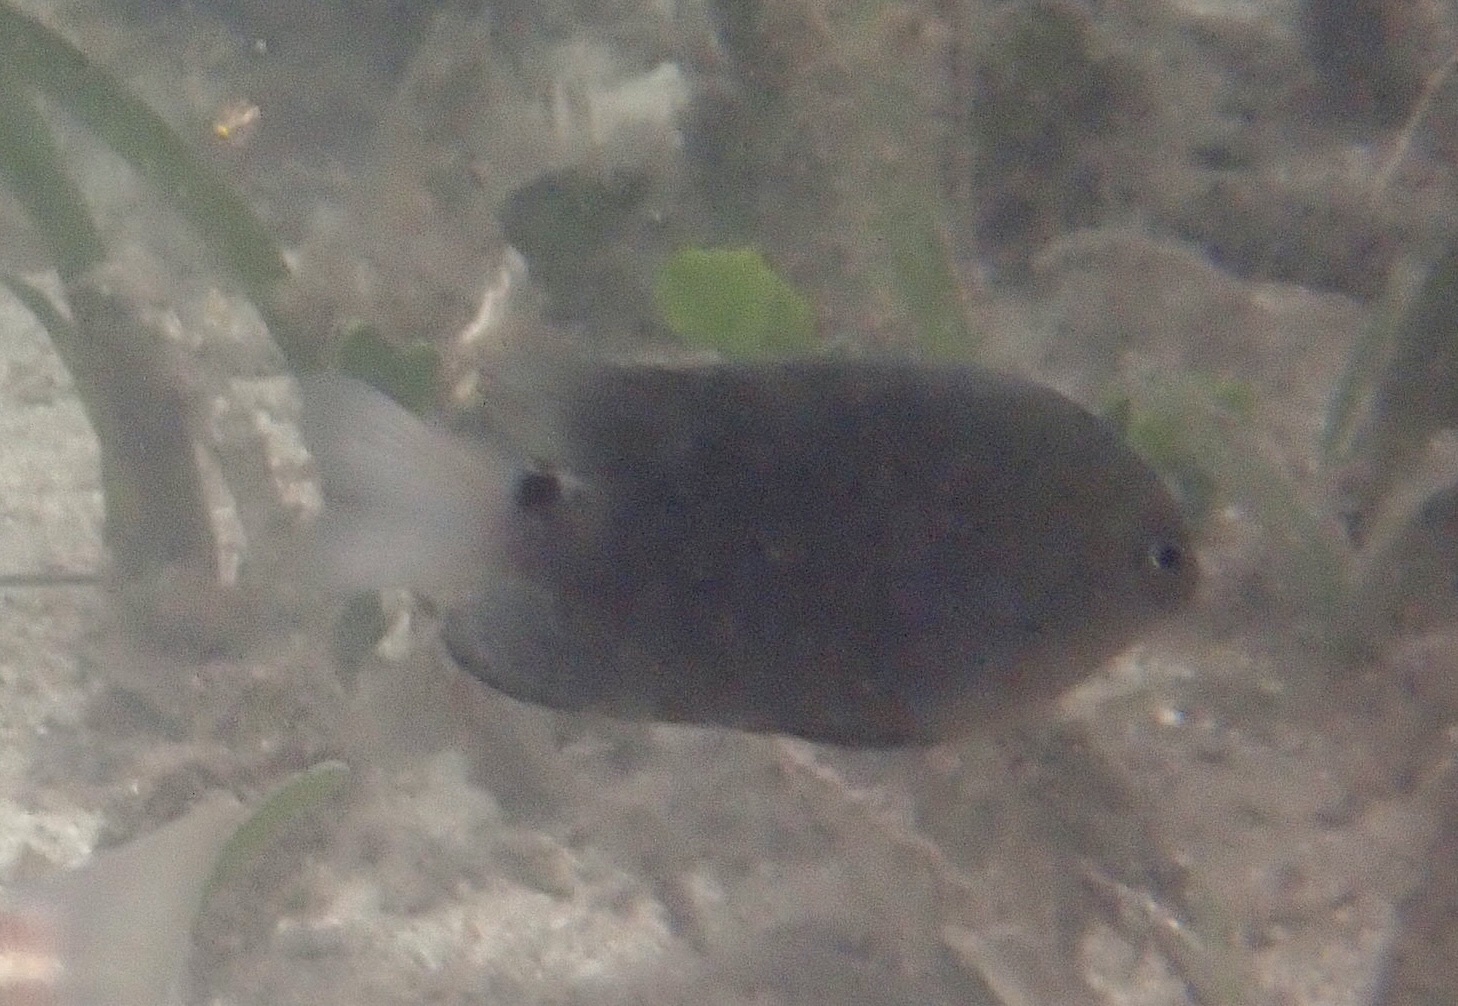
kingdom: Animalia
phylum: Chordata
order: Perciformes
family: Pomacentridae
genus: Pomacentrus
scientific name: Pomacentrus tripunctatus
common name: Threespot damsel
